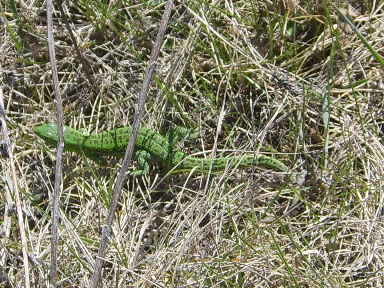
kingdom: Animalia
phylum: Chordata
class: Squamata
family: Lacertidae
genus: Lacerta
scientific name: Lacerta agilis
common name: Sand lizard
